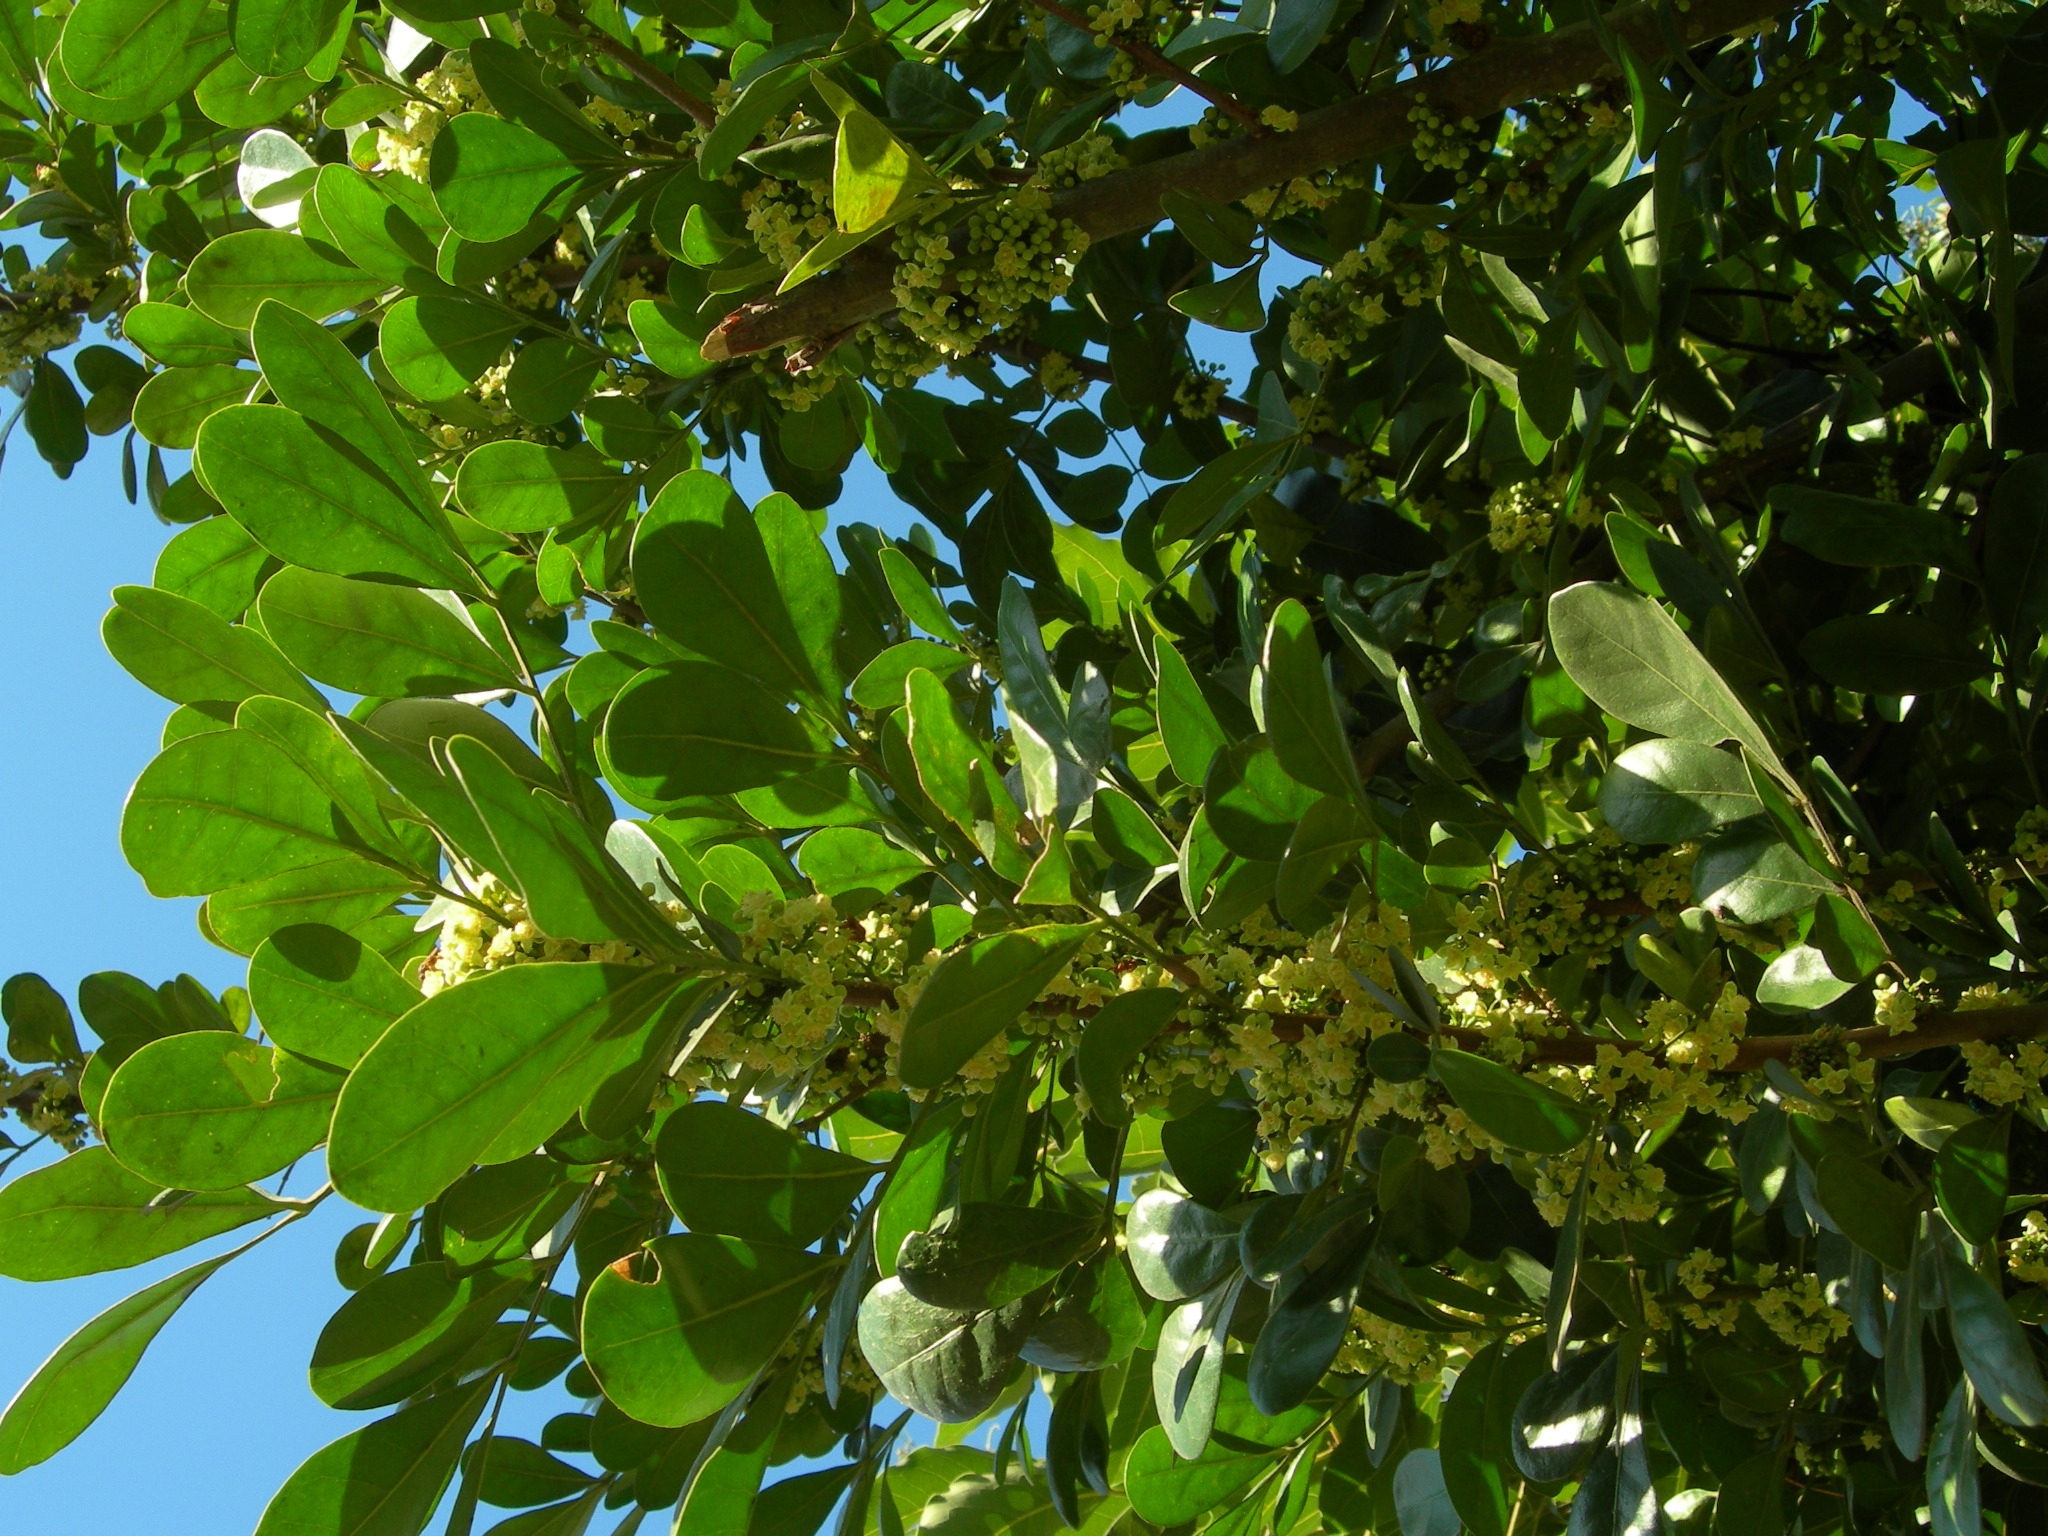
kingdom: Plantae
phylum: Tracheophyta
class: Magnoliopsida
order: Sapindales
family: Meliaceae
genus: Trichilia
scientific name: Trichilia havanensis
